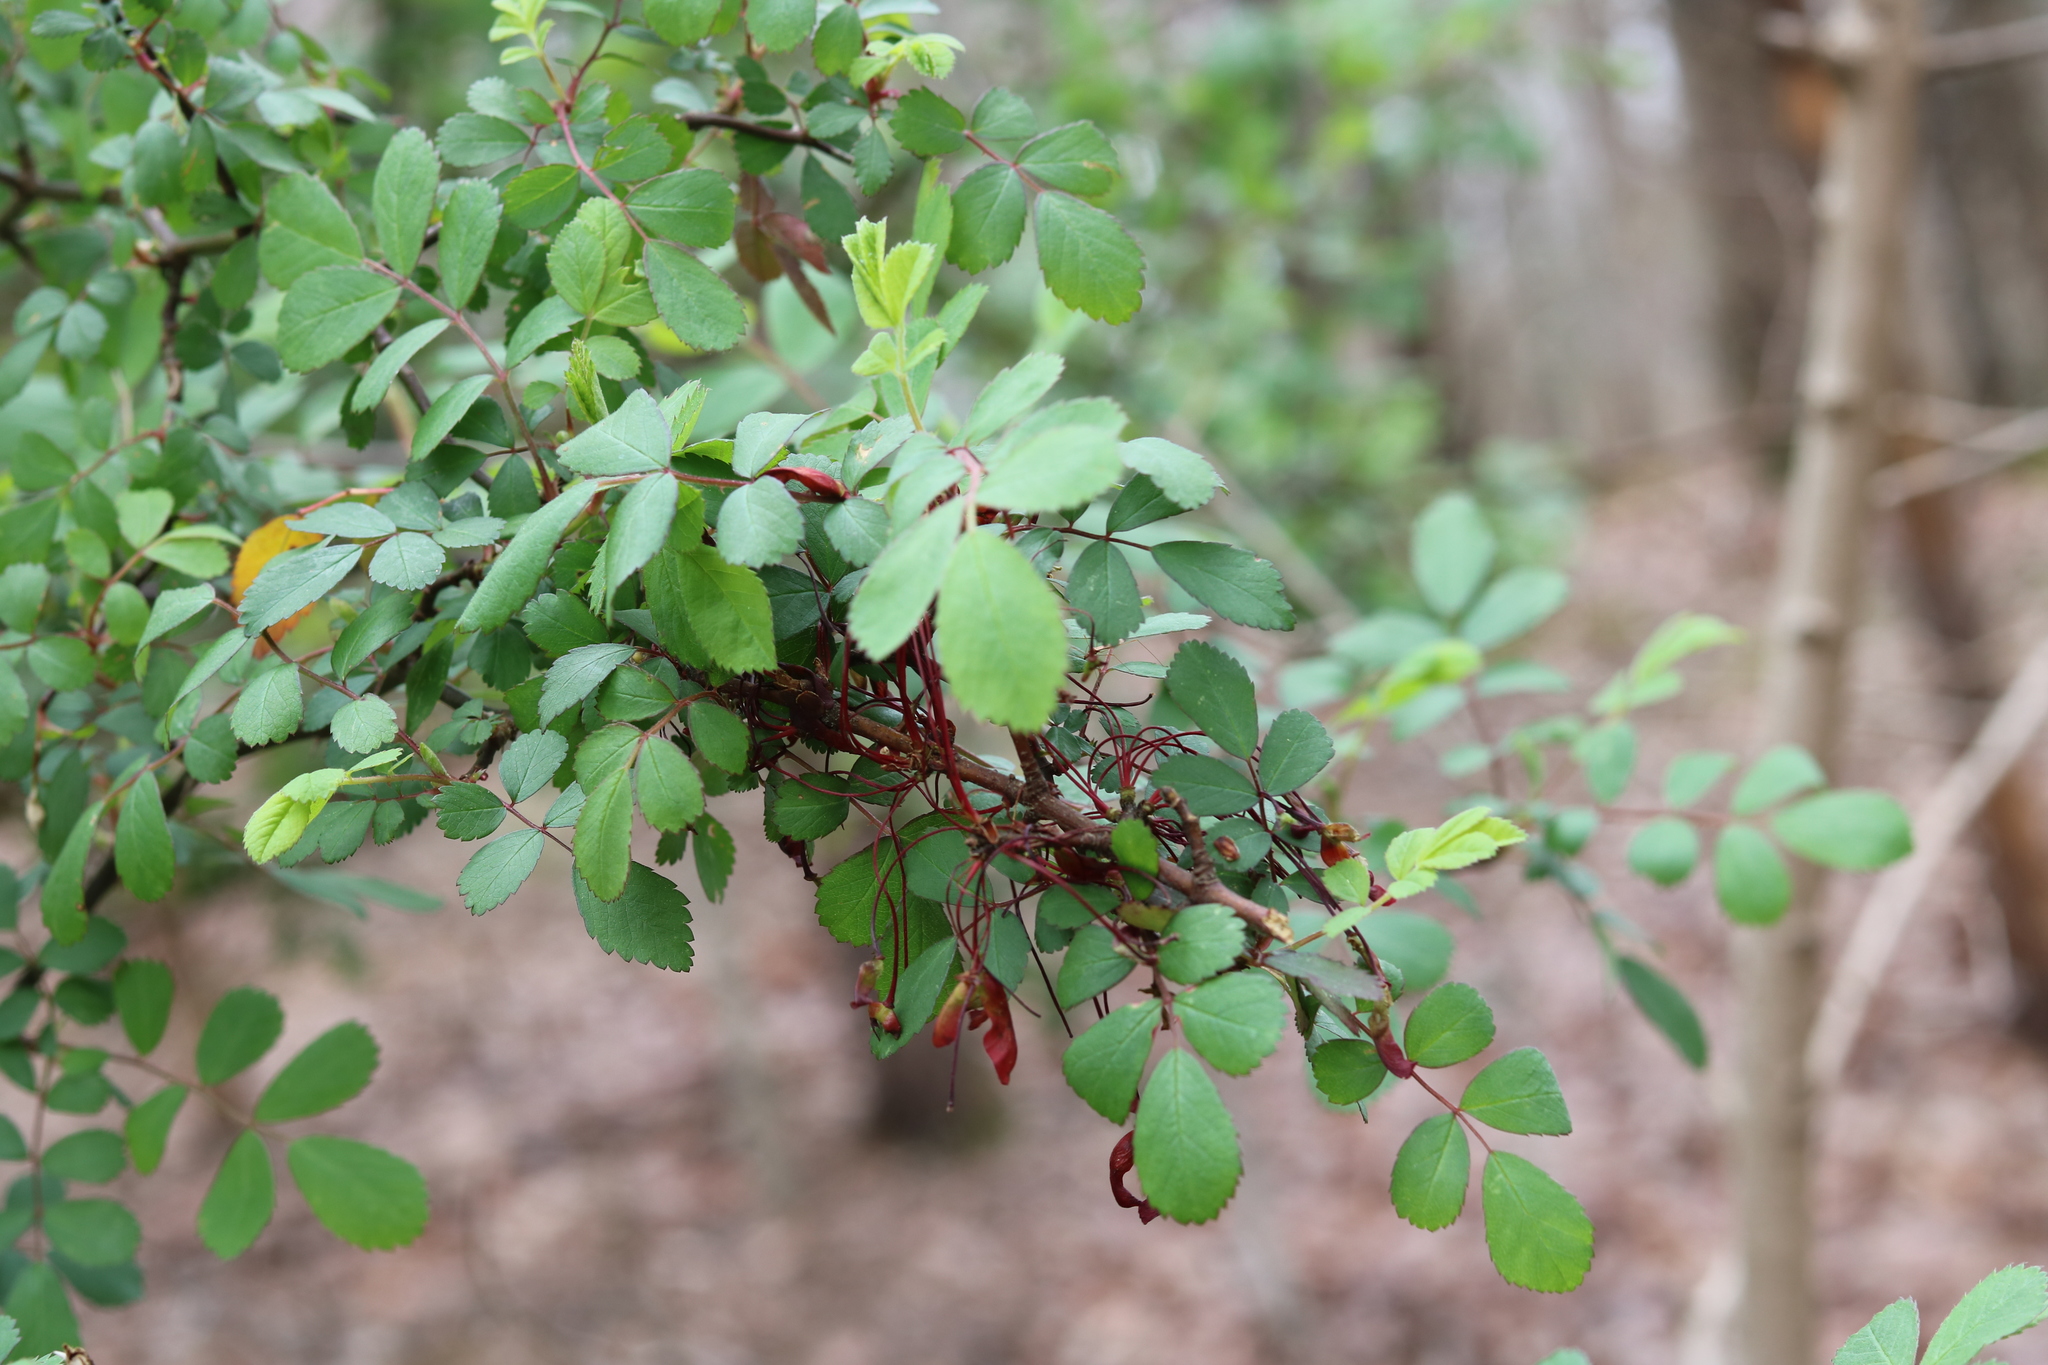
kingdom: Plantae
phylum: Tracheophyta
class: Magnoliopsida
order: Rosales
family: Rosaceae
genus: Rosa
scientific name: Rosa multiflora
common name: Multiflora rose
